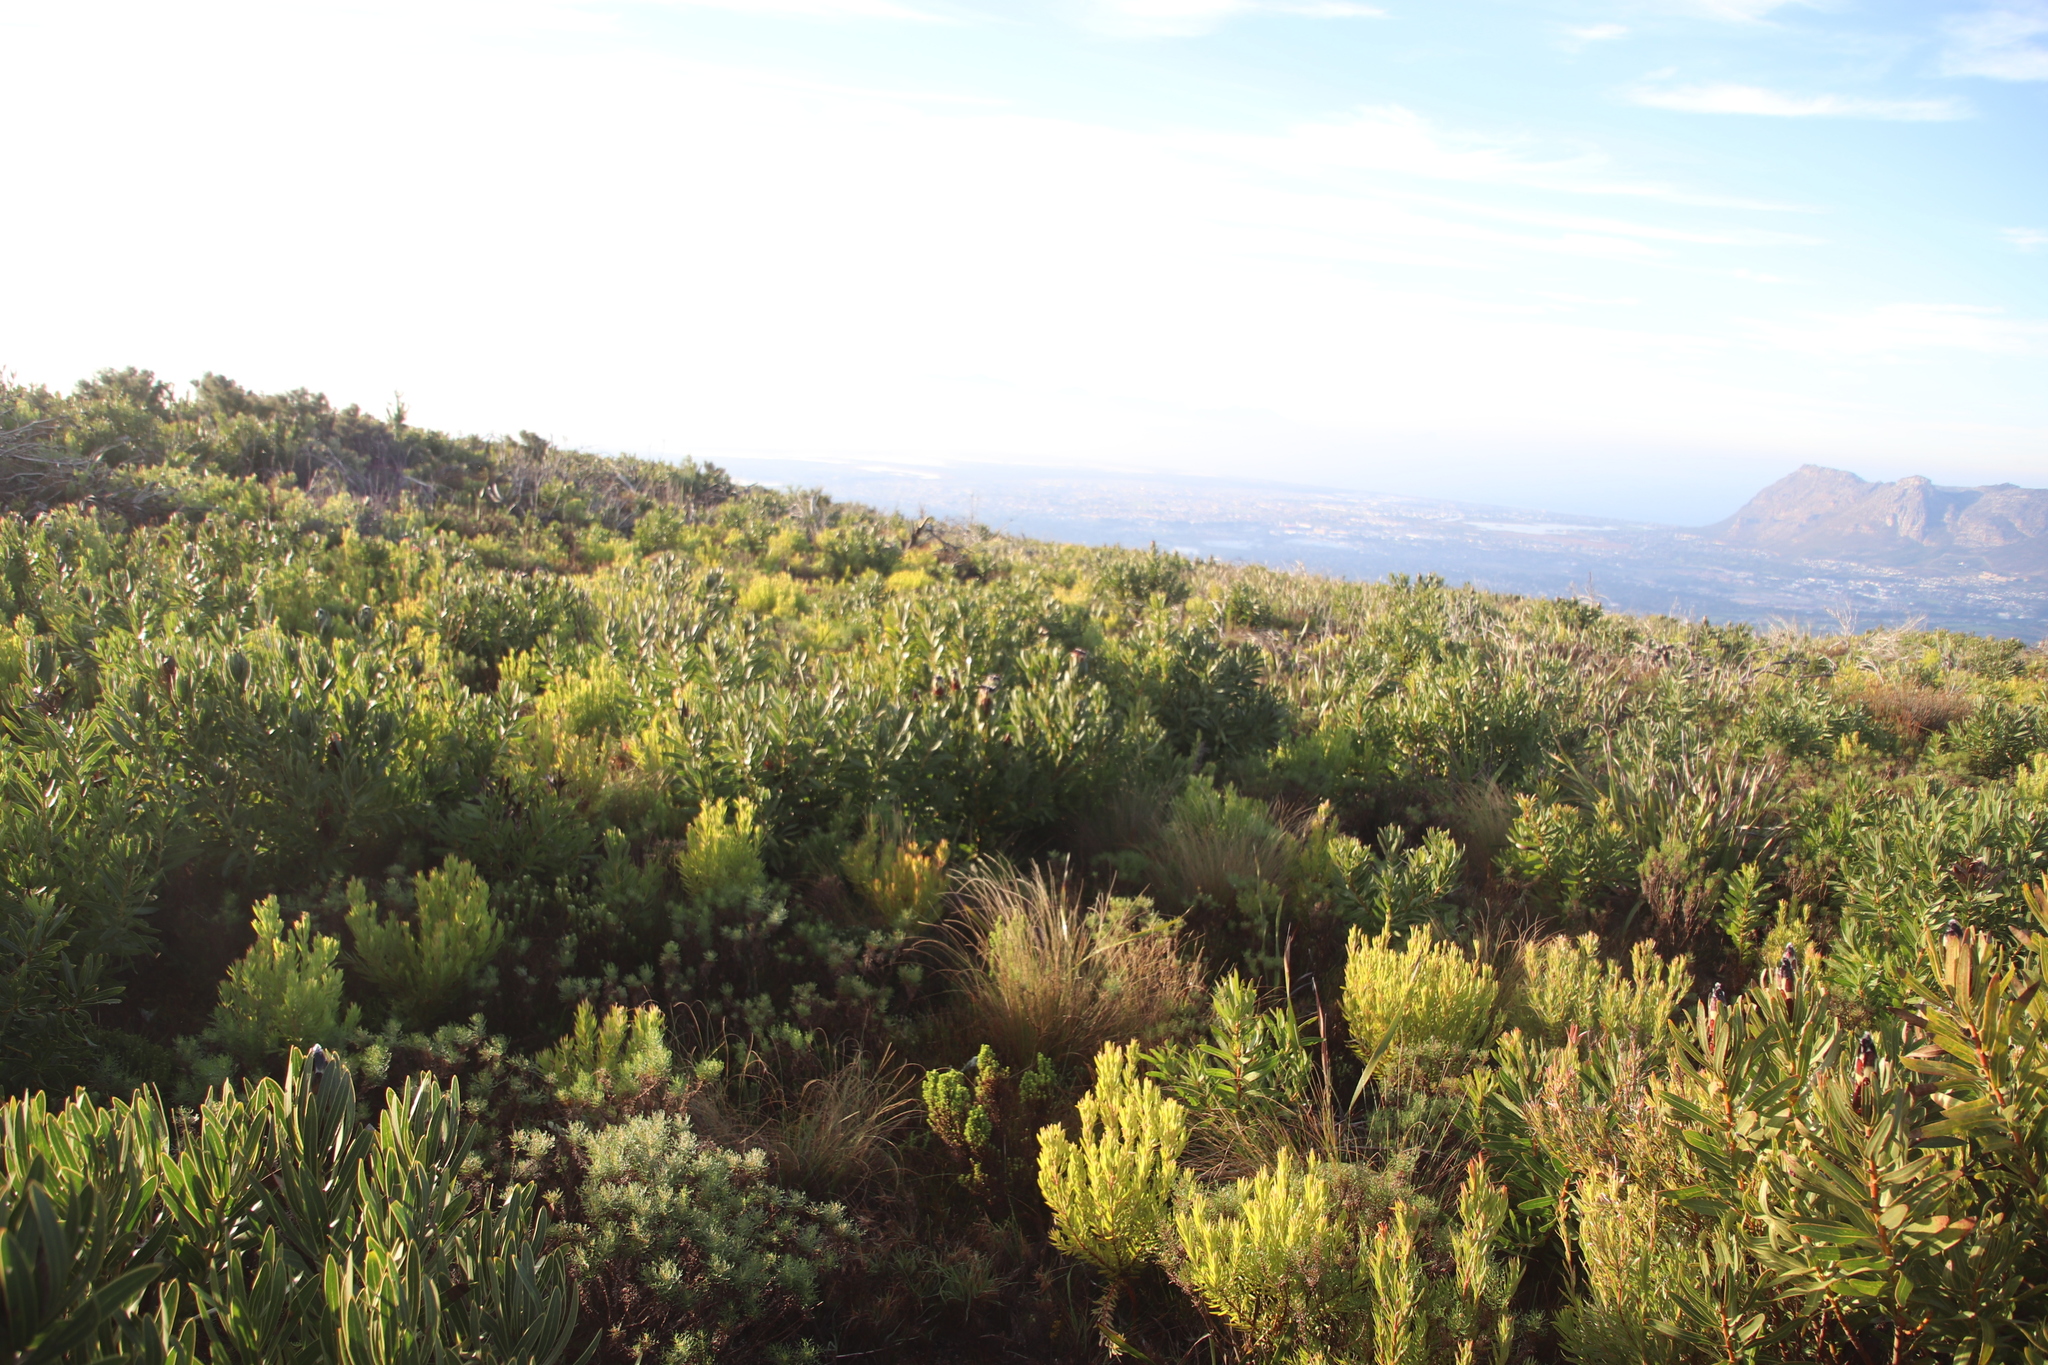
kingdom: Plantae
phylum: Tracheophyta
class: Magnoliopsida
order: Proteales
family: Proteaceae
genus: Leucadendron
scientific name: Leucadendron xanthoconus
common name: Sickle-leaf conebush
